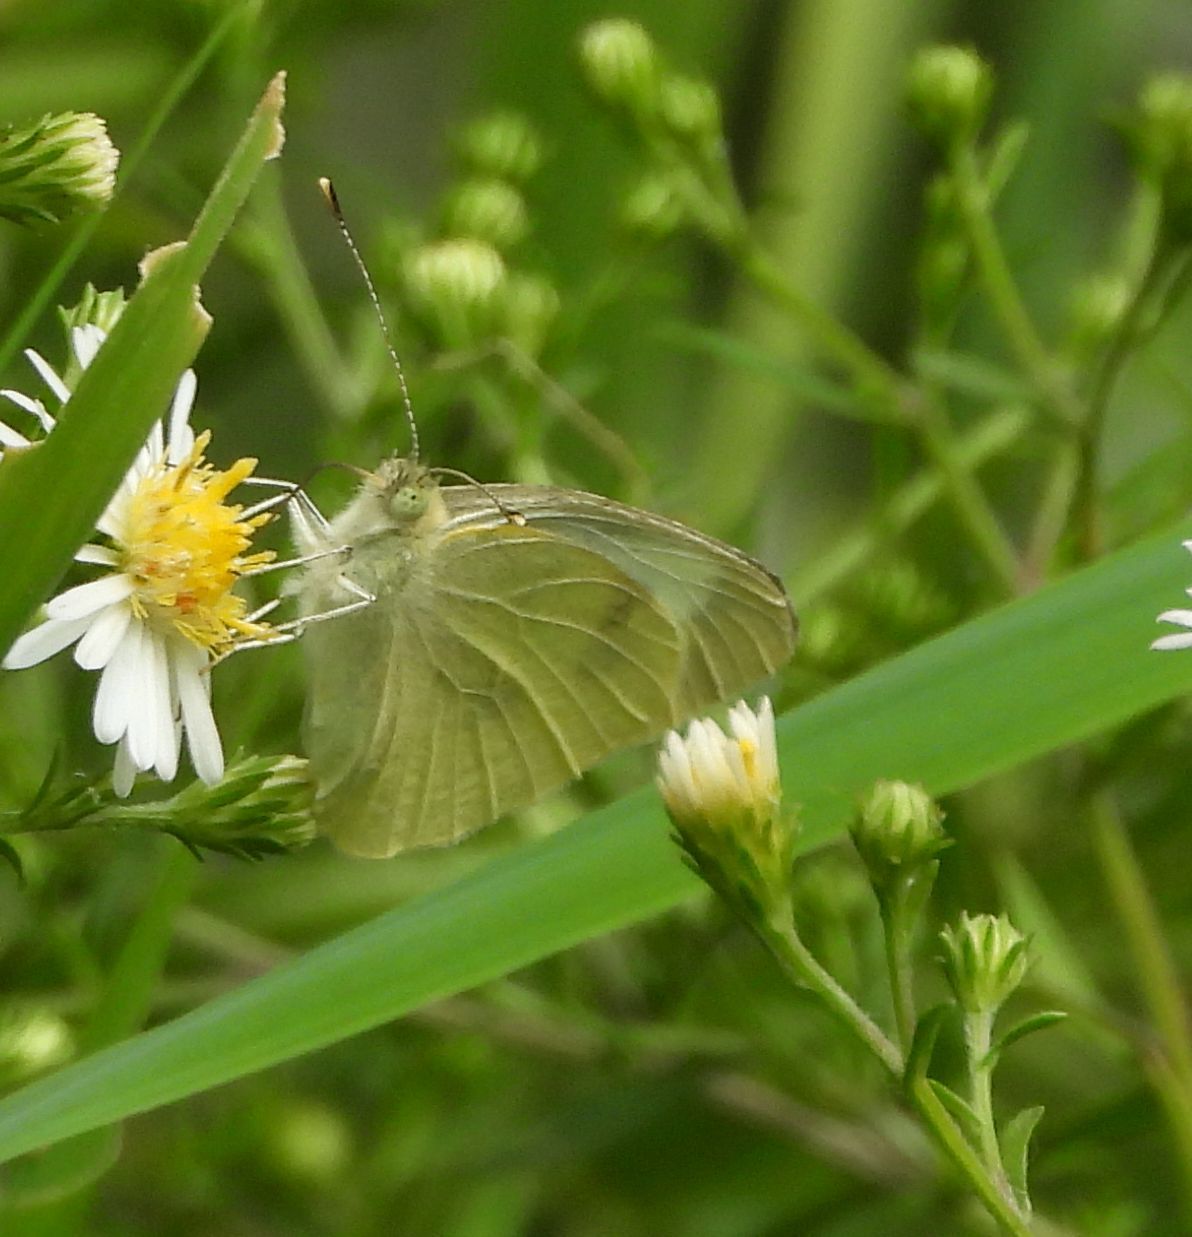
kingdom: Animalia
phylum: Arthropoda
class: Insecta
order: Lepidoptera
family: Pieridae
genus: Pieris
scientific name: Pieris rapae
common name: Small white
